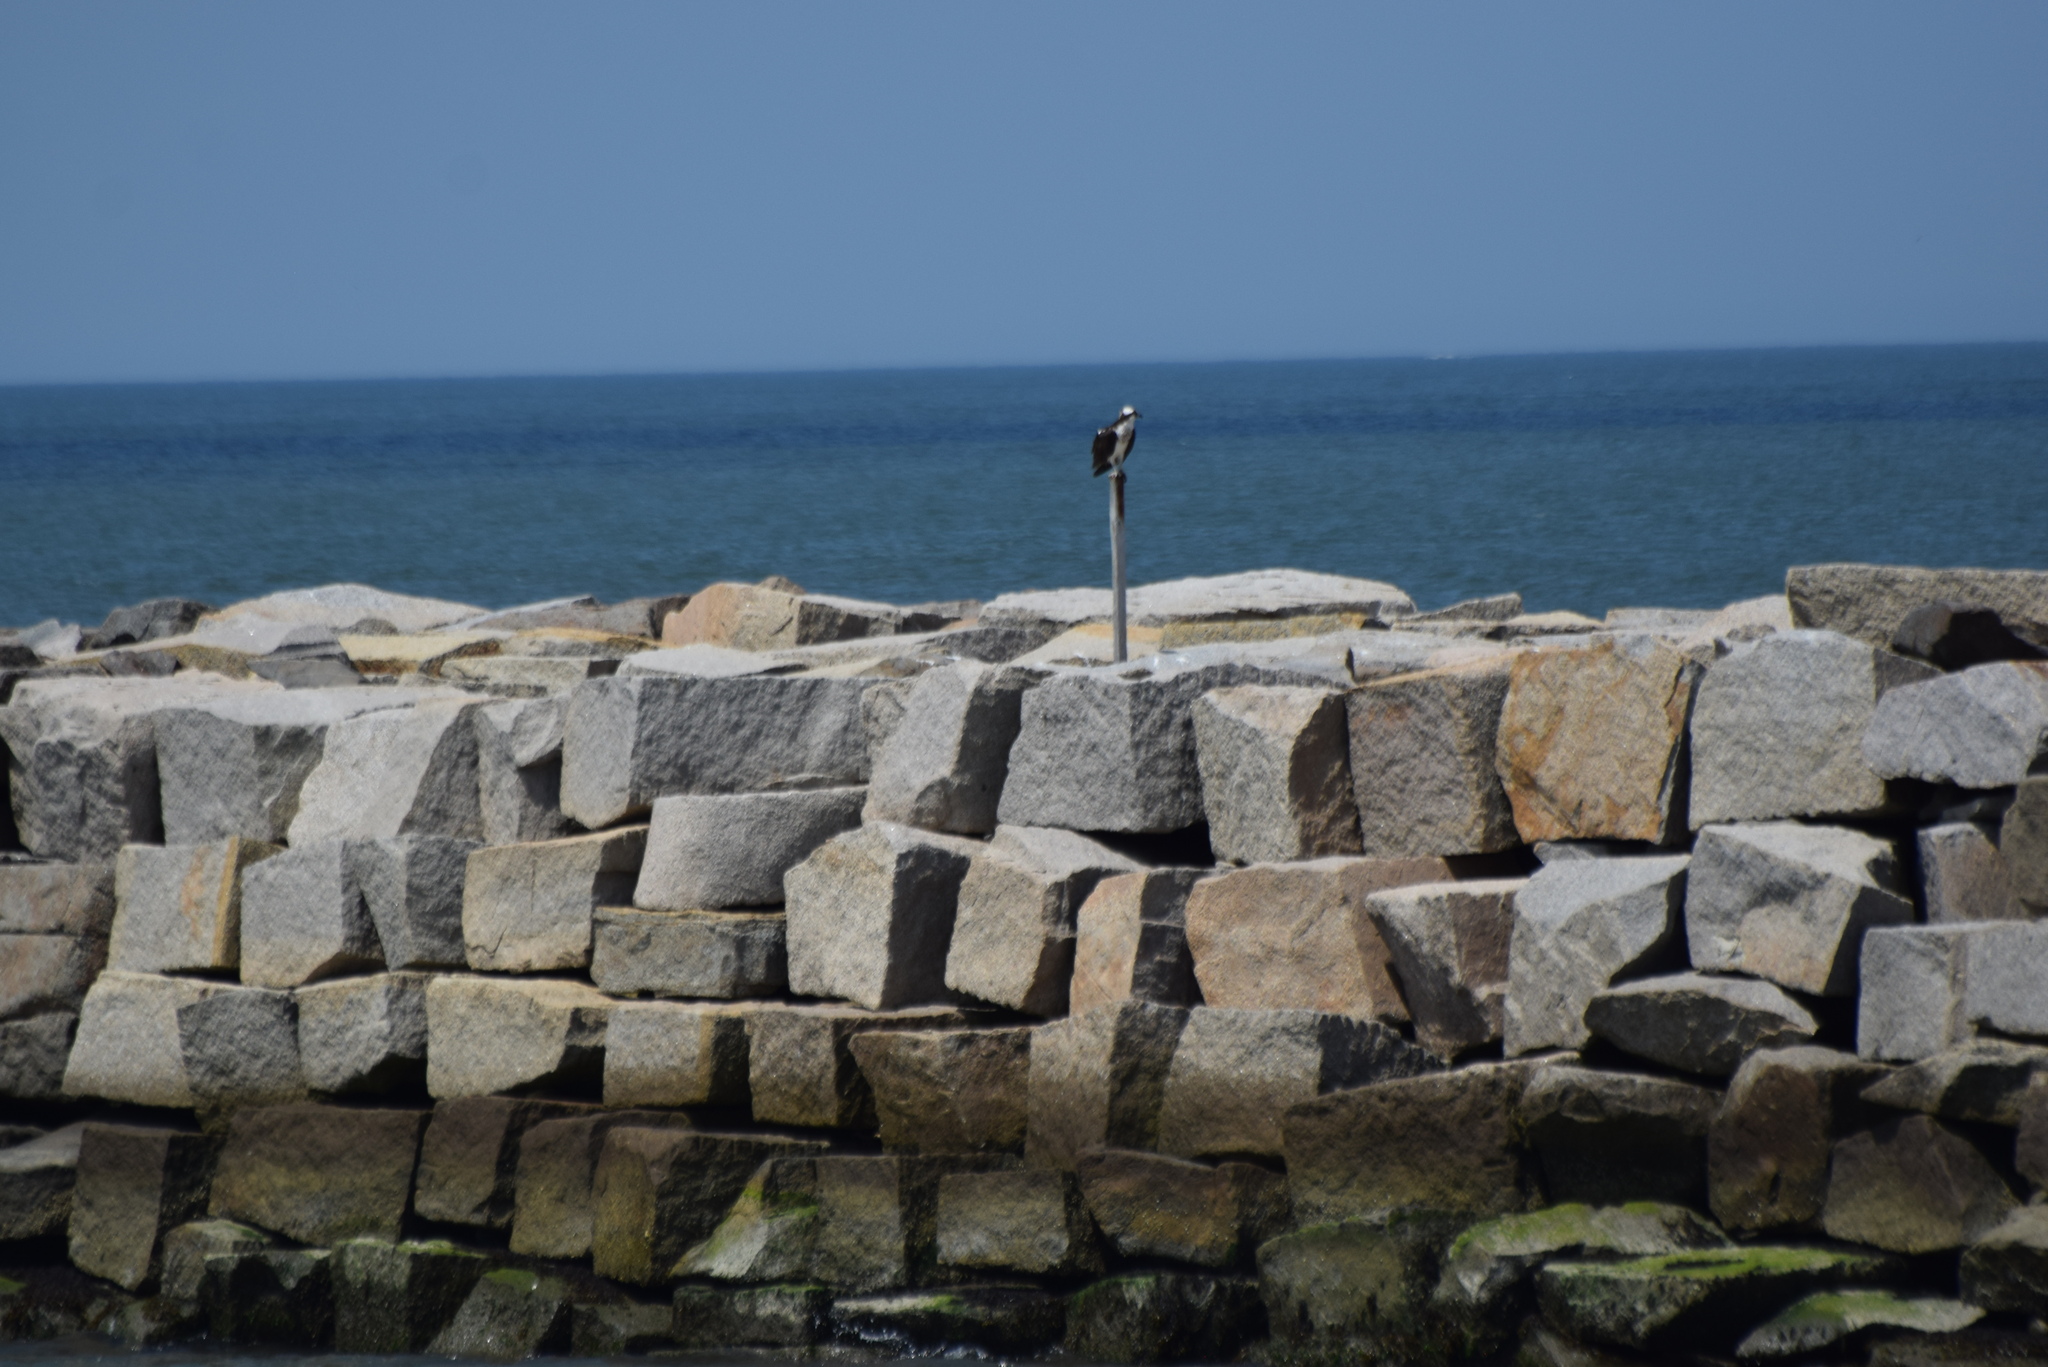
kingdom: Animalia
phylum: Chordata
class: Aves
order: Accipitriformes
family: Pandionidae
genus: Pandion
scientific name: Pandion haliaetus
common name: Osprey
